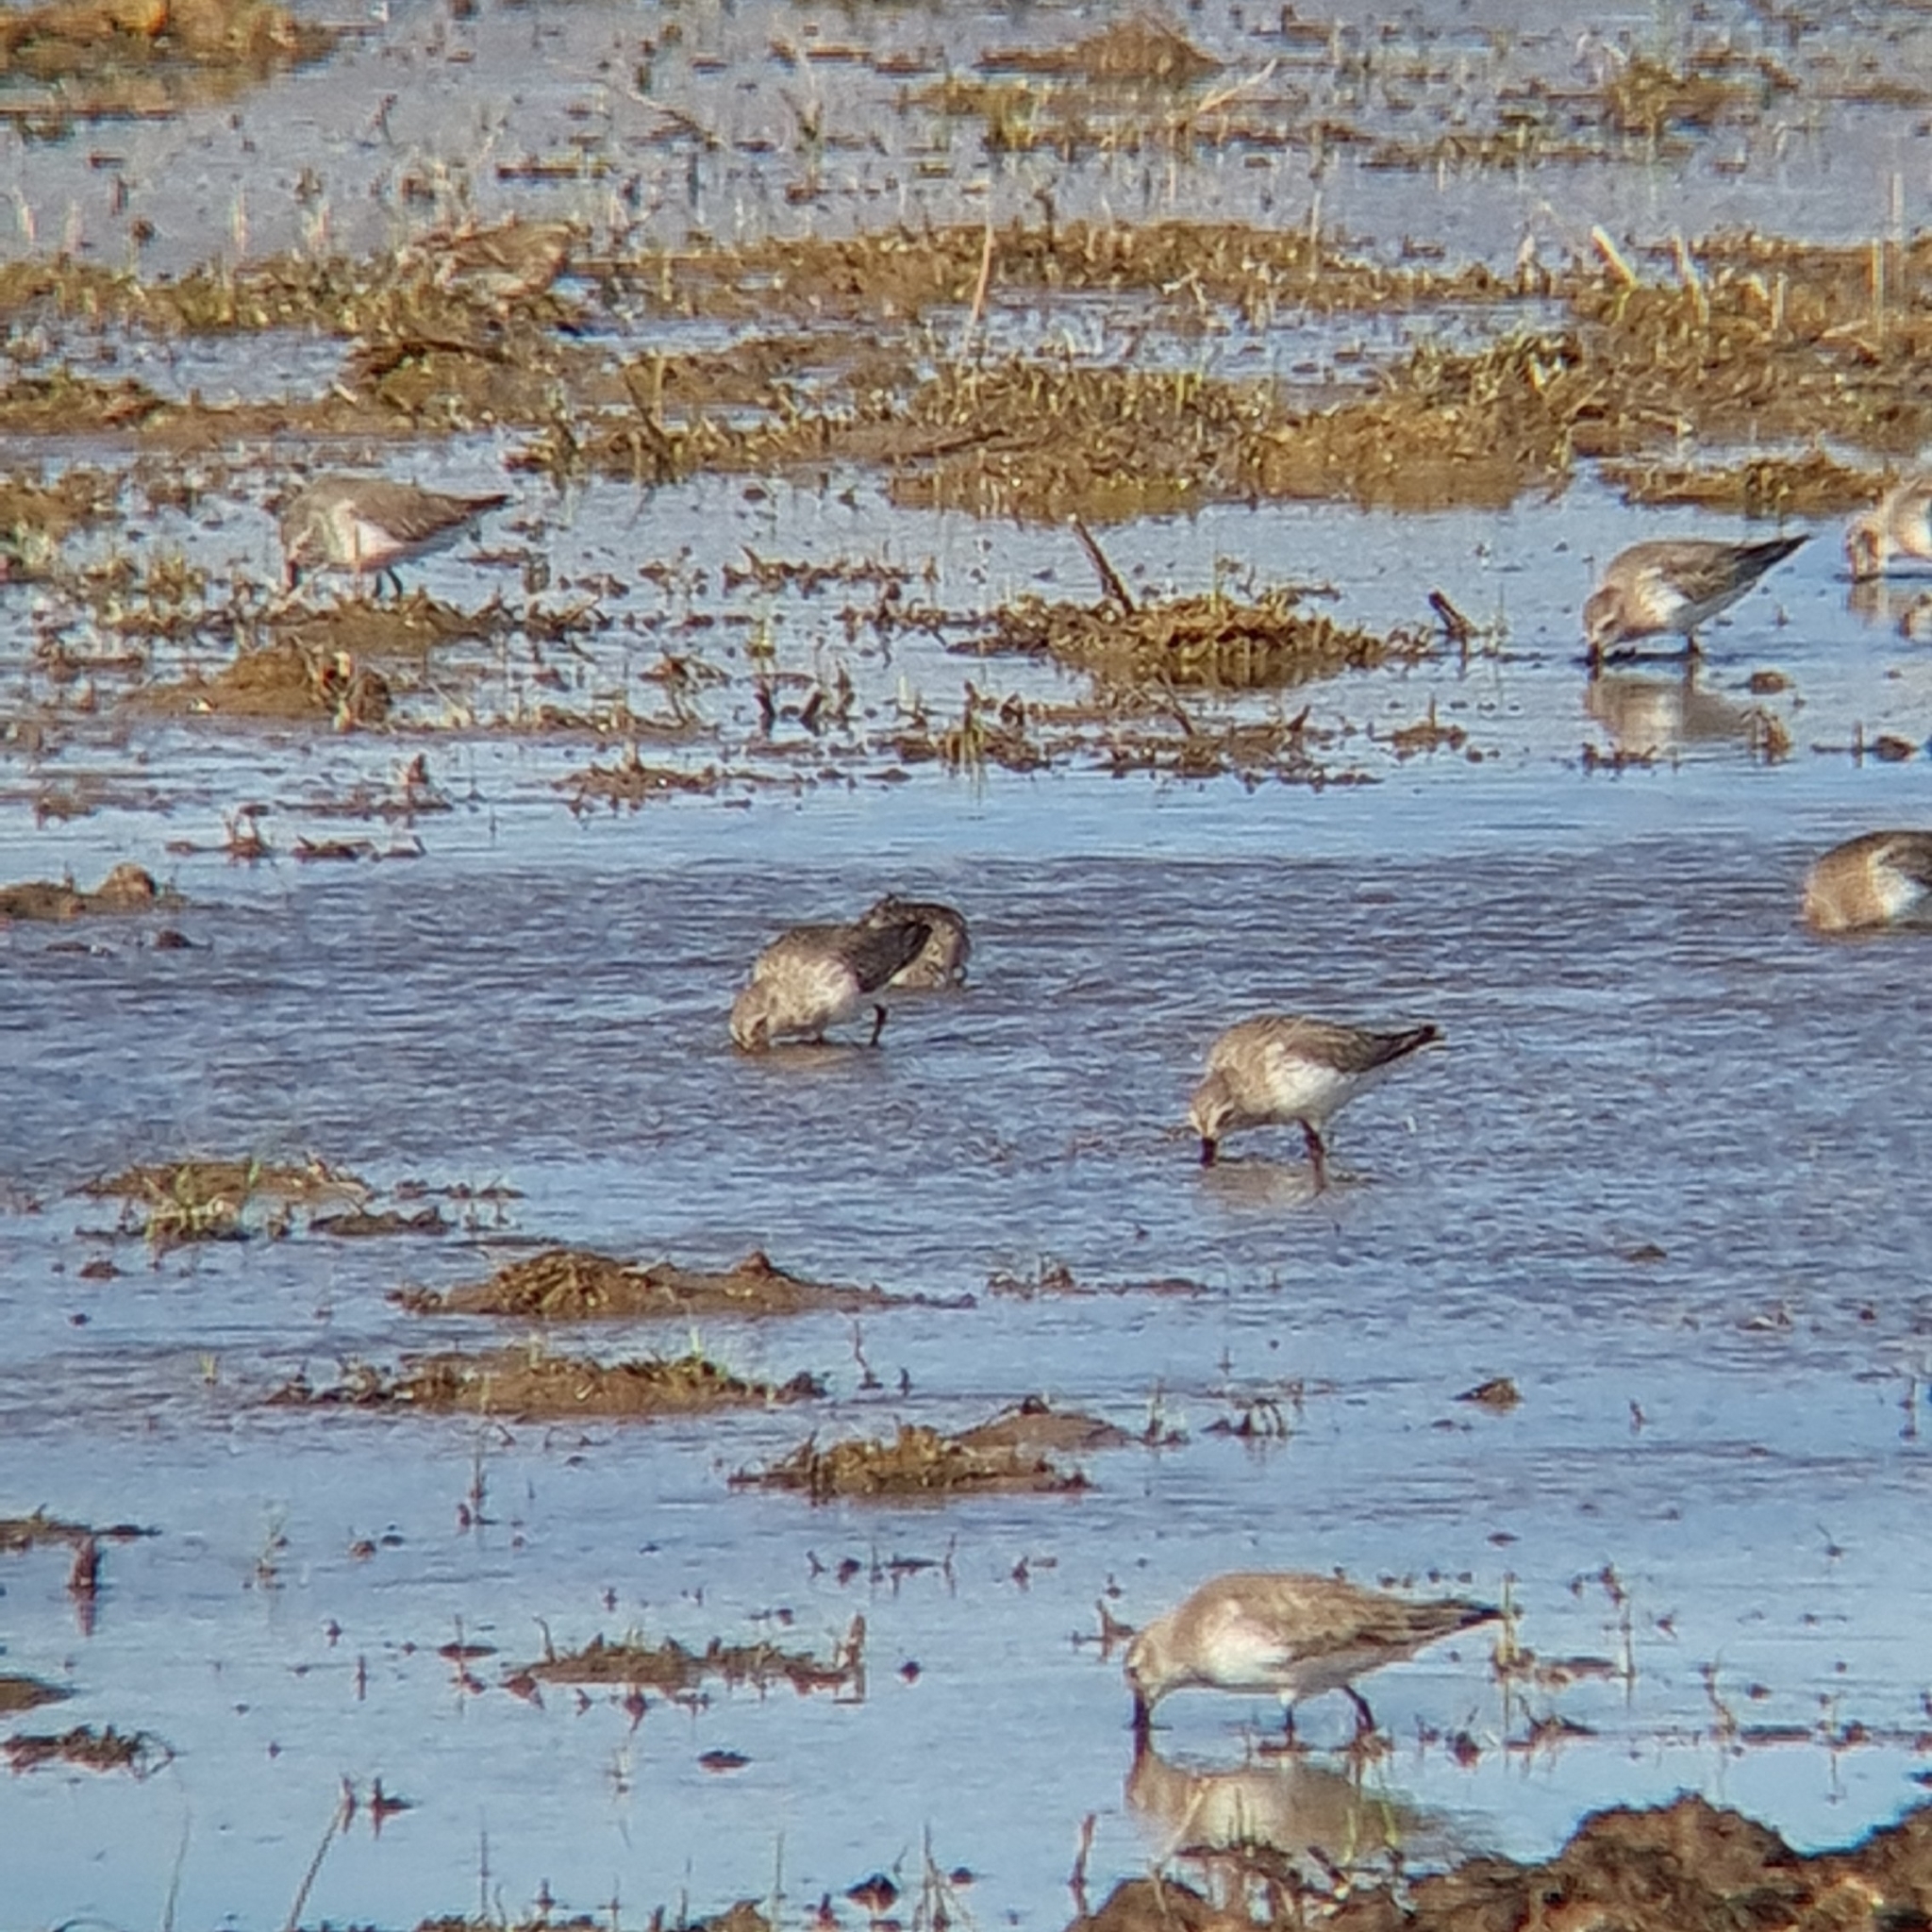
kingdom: Animalia
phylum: Chordata
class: Aves
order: Charadriiformes
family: Scolopacidae
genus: Calidris
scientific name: Calidris alpina
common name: Dunlin
